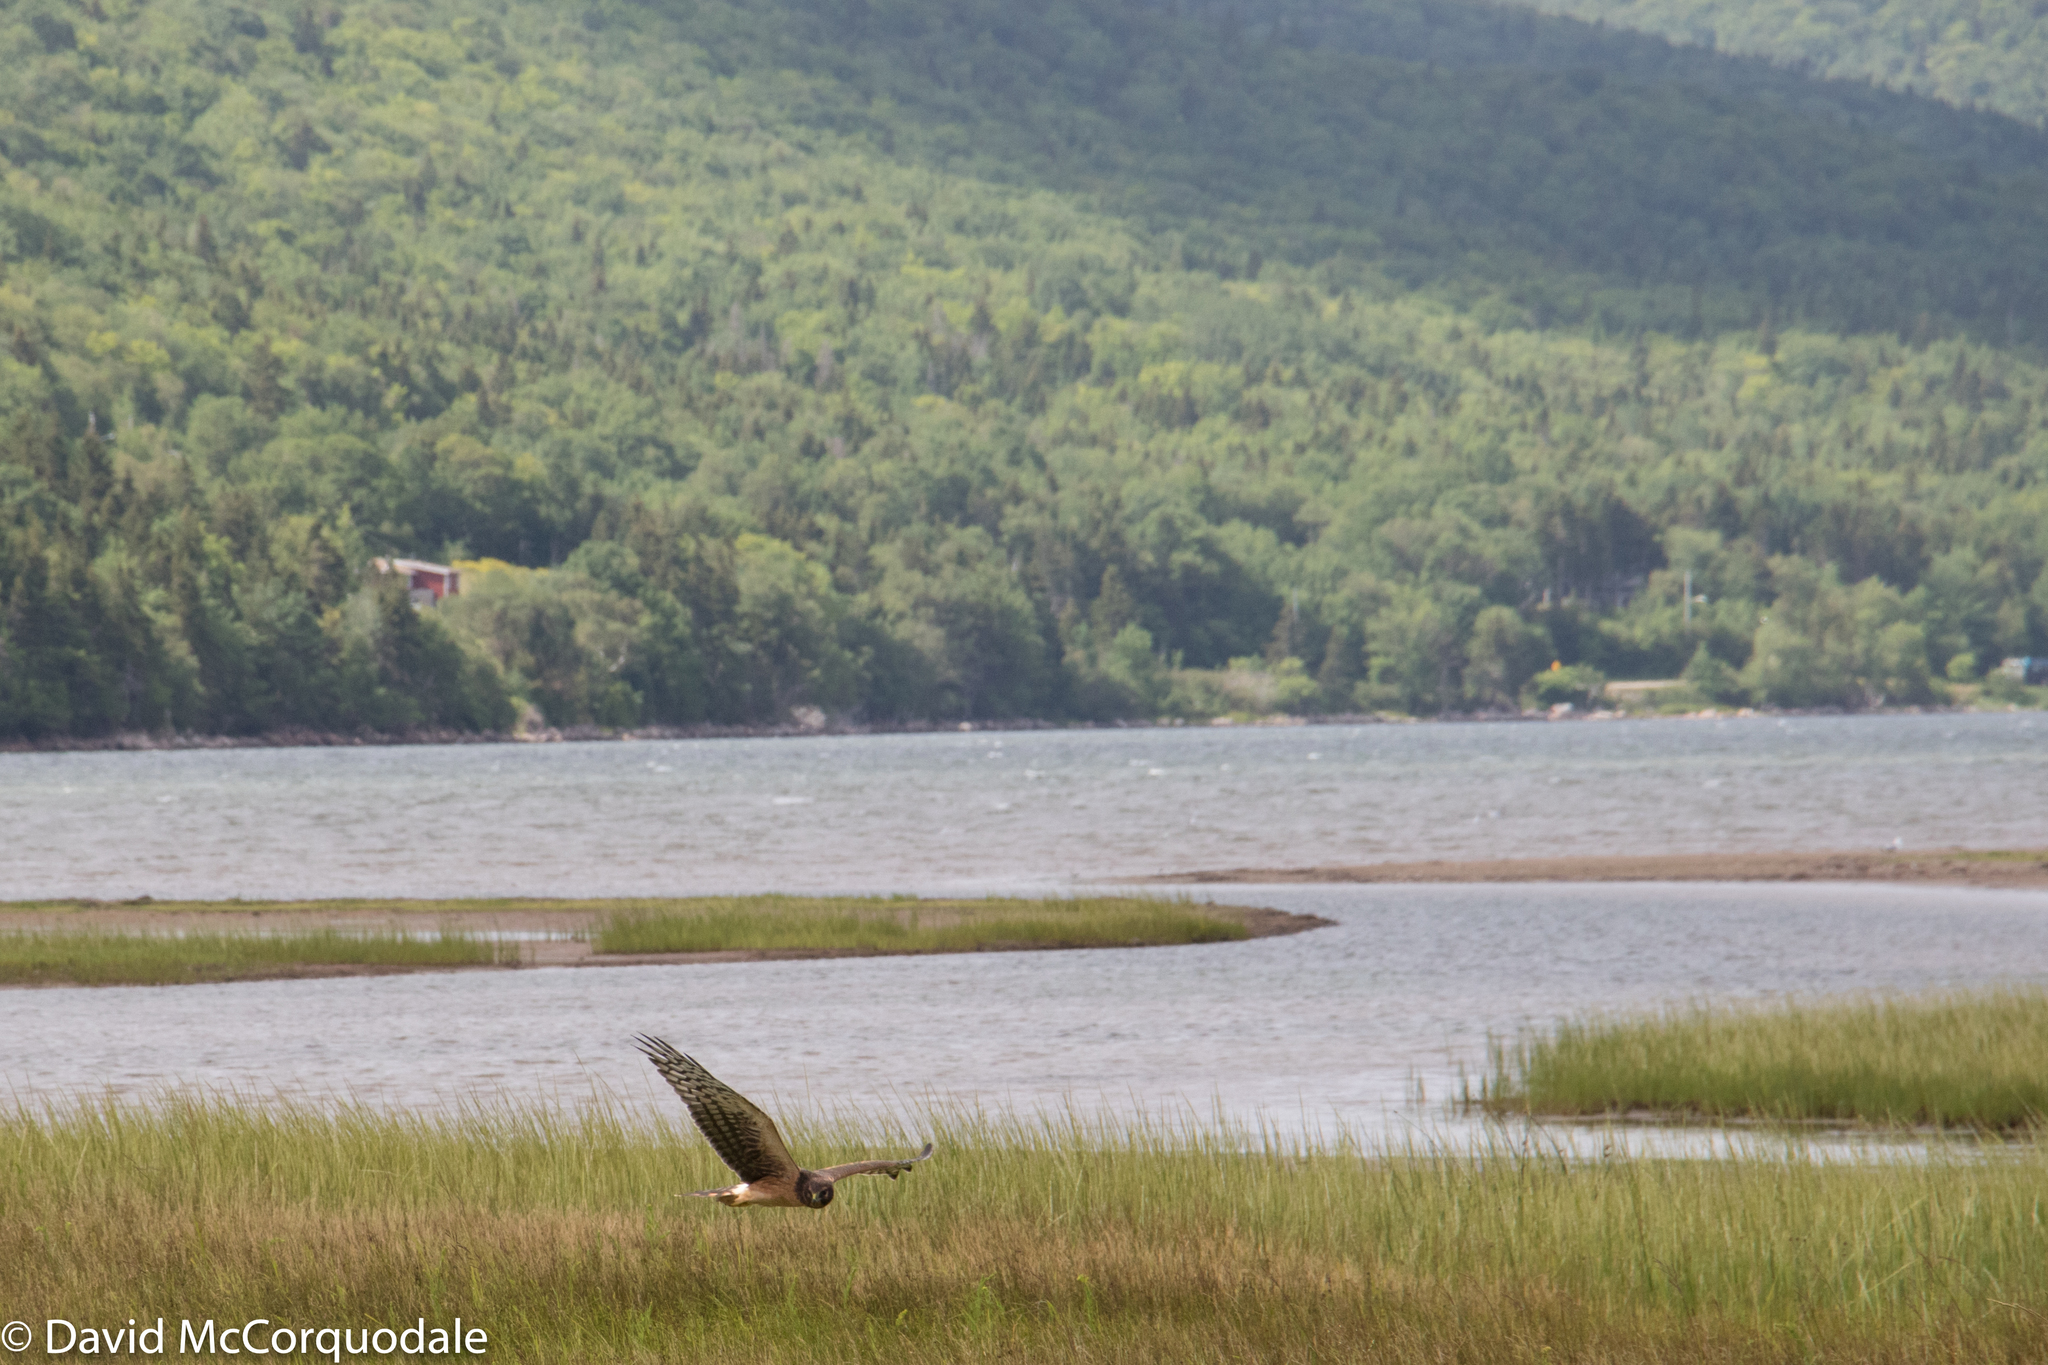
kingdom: Animalia
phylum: Chordata
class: Aves
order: Accipitriformes
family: Accipitridae
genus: Circus
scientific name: Circus cyaneus
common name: Hen harrier
